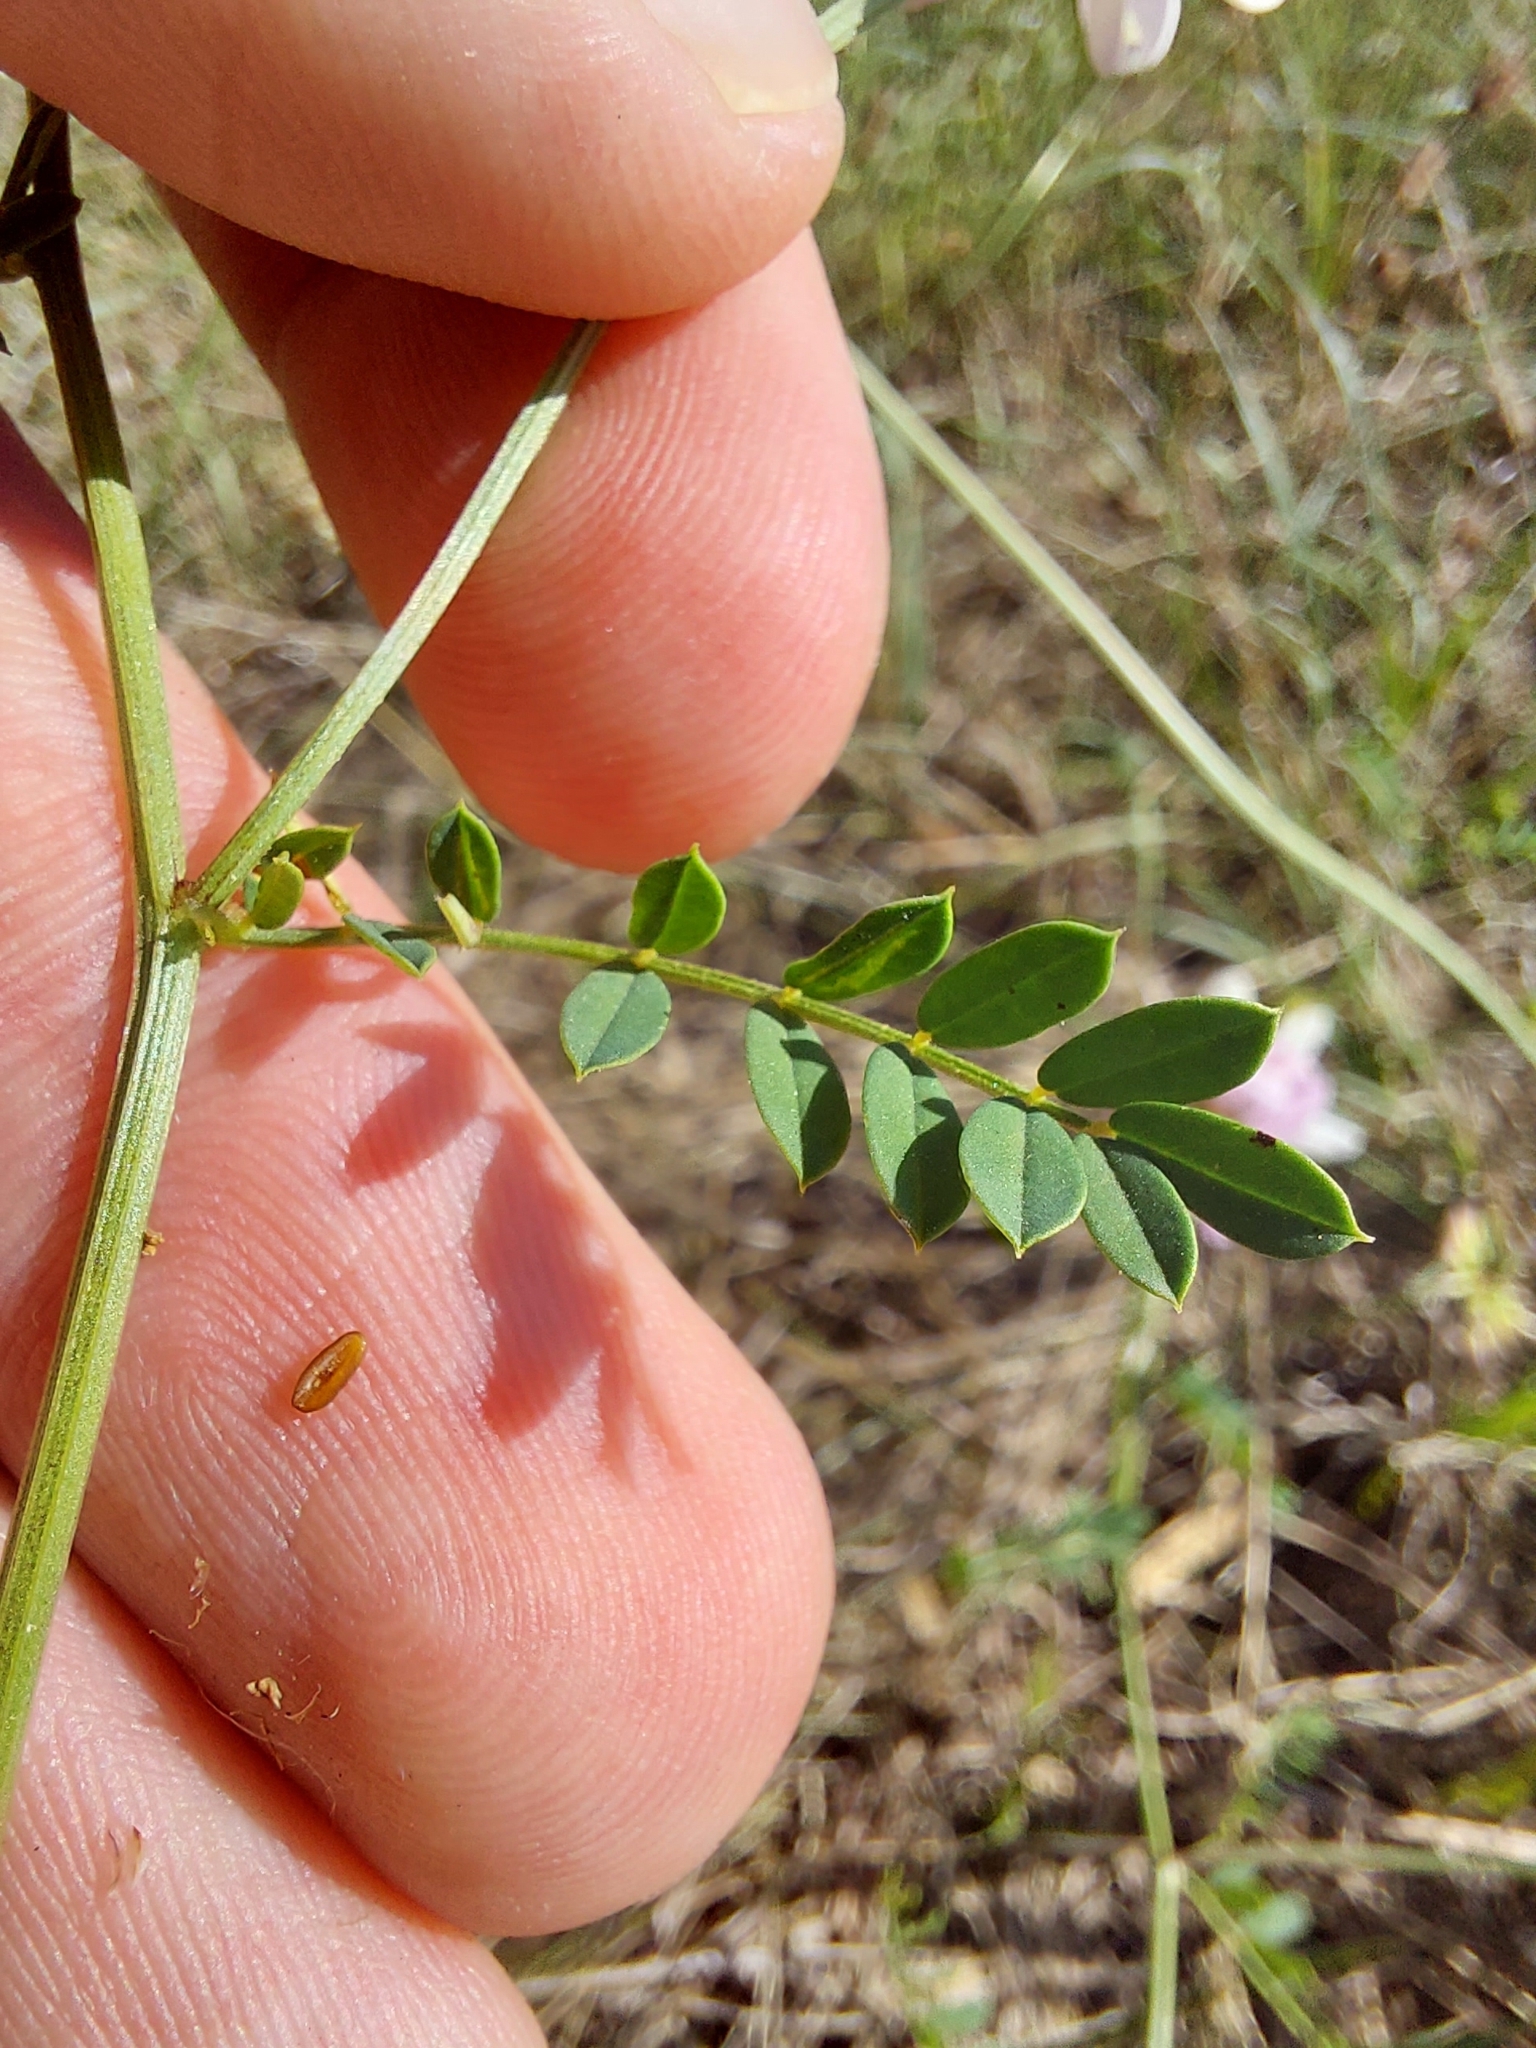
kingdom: Plantae
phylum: Tracheophyta
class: Magnoliopsida
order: Fabales
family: Fabaceae
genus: Coronilla
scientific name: Coronilla varia
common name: Crownvetch
